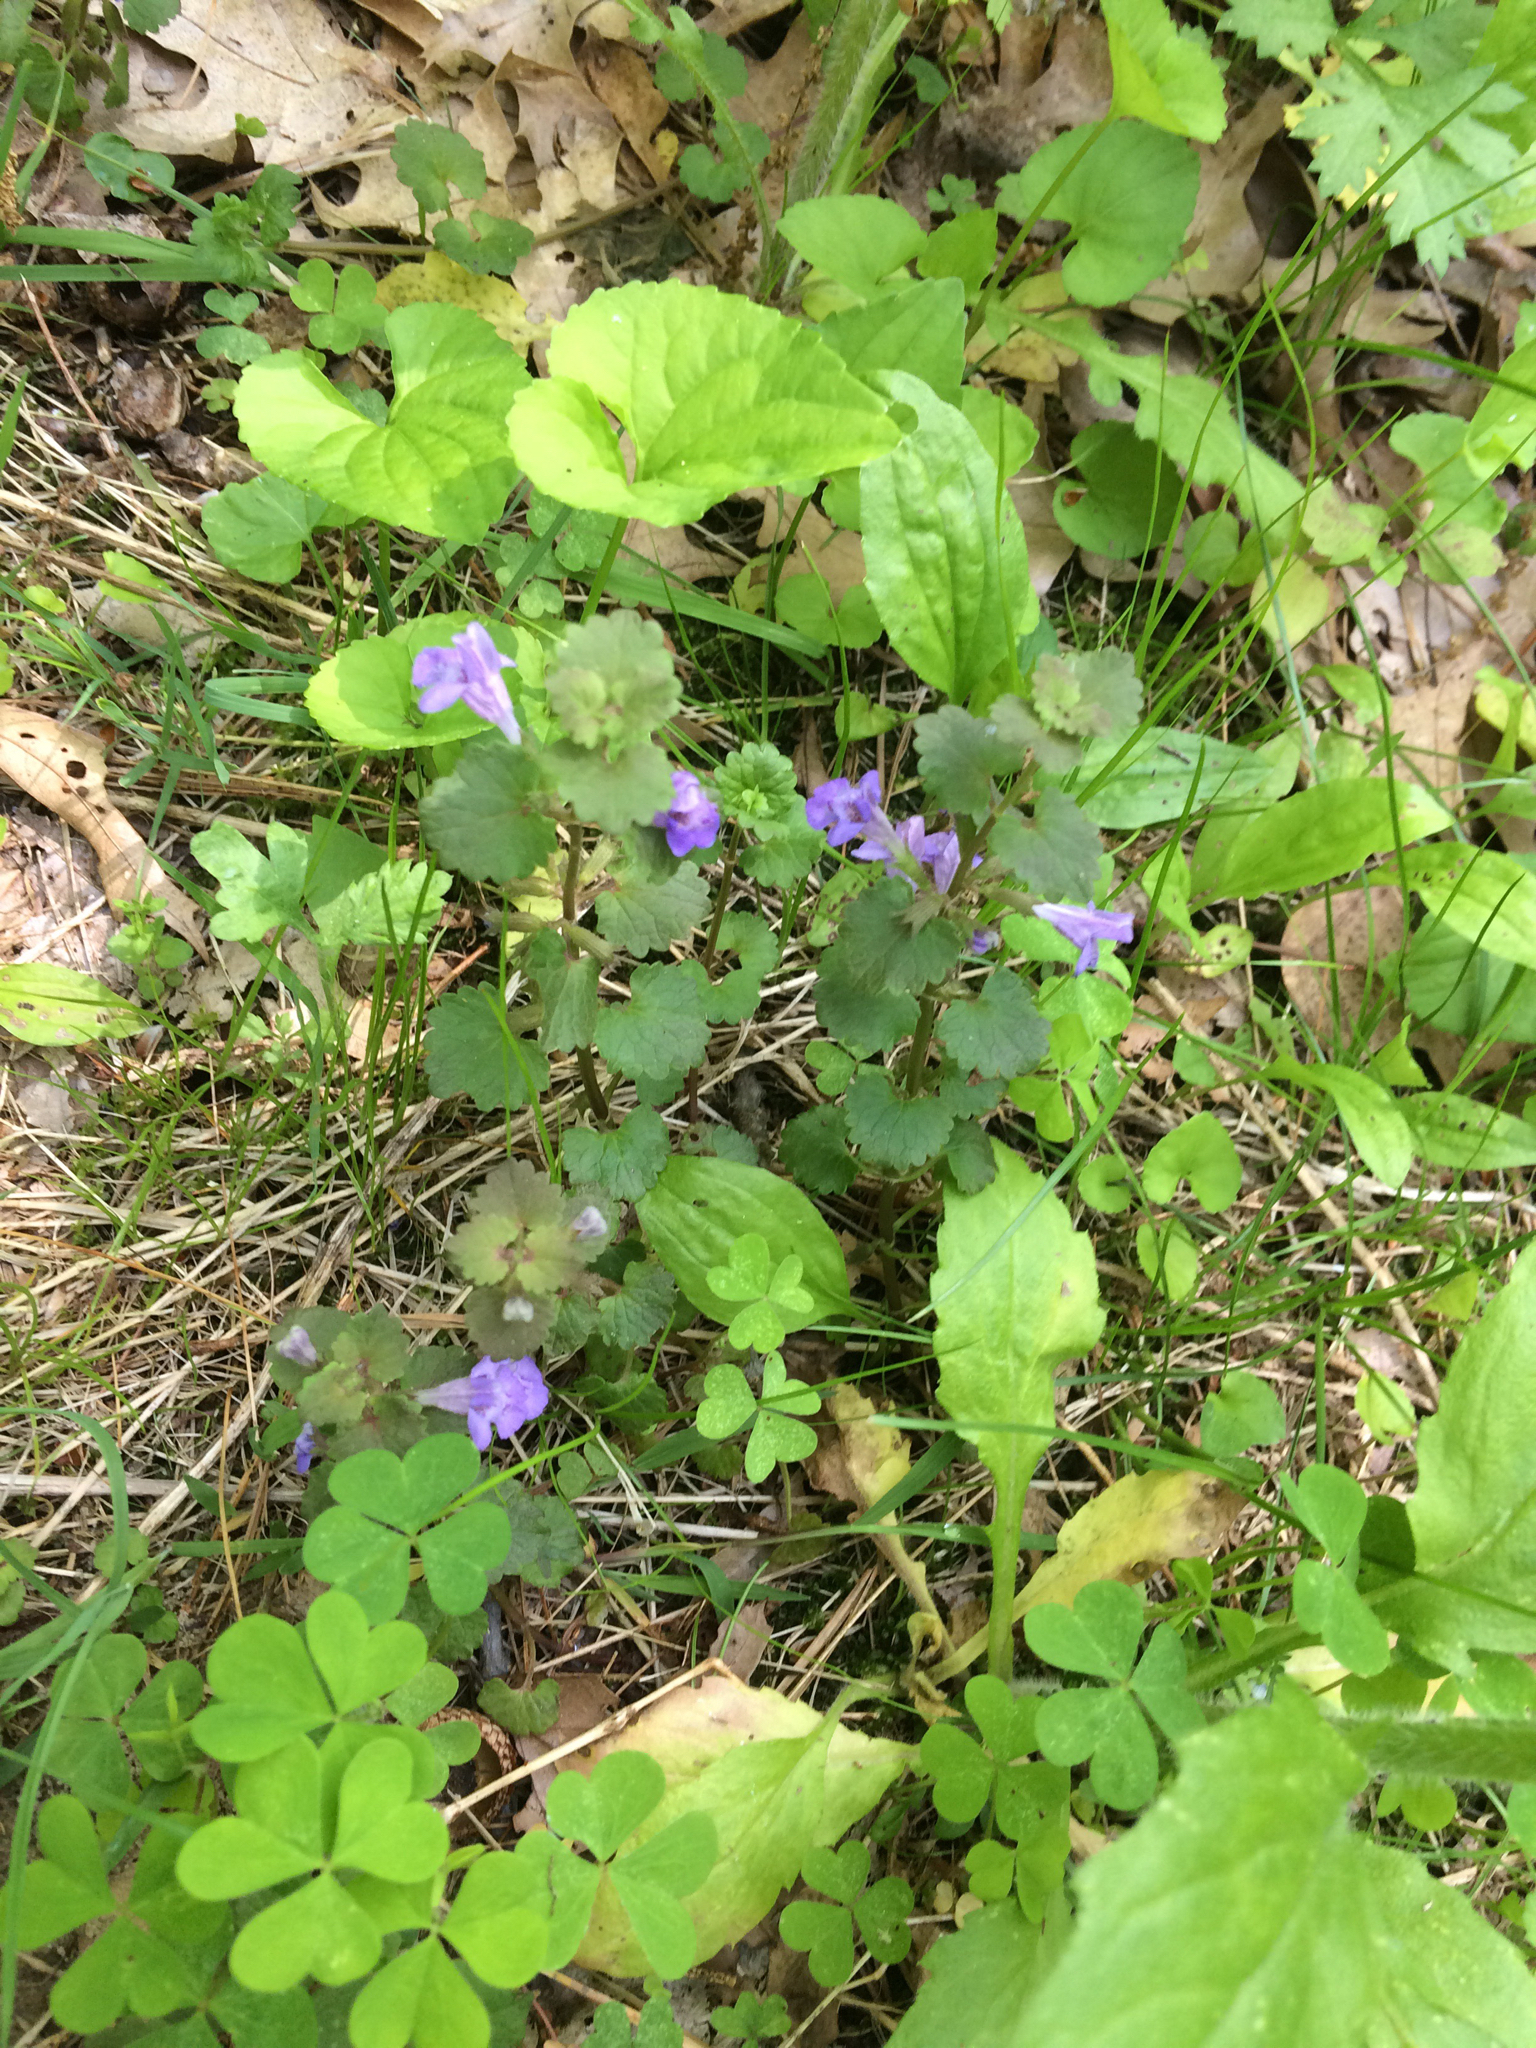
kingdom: Plantae
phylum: Tracheophyta
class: Magnoliopsida
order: Lamiales
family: Lamiaceae
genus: Glechoma
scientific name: Glechoma hederacea
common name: Ground ivy
